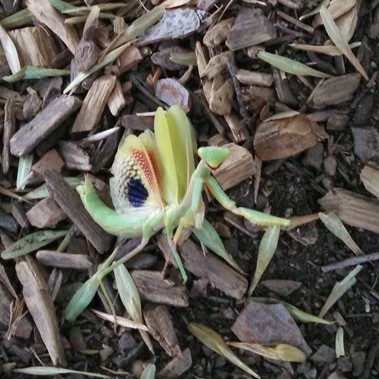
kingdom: Animalia
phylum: Arthropoda
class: Insecta
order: Mantodea
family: Eremiaphilidae
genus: Iris
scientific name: Iris oratoria
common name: Mediterranean mantis
